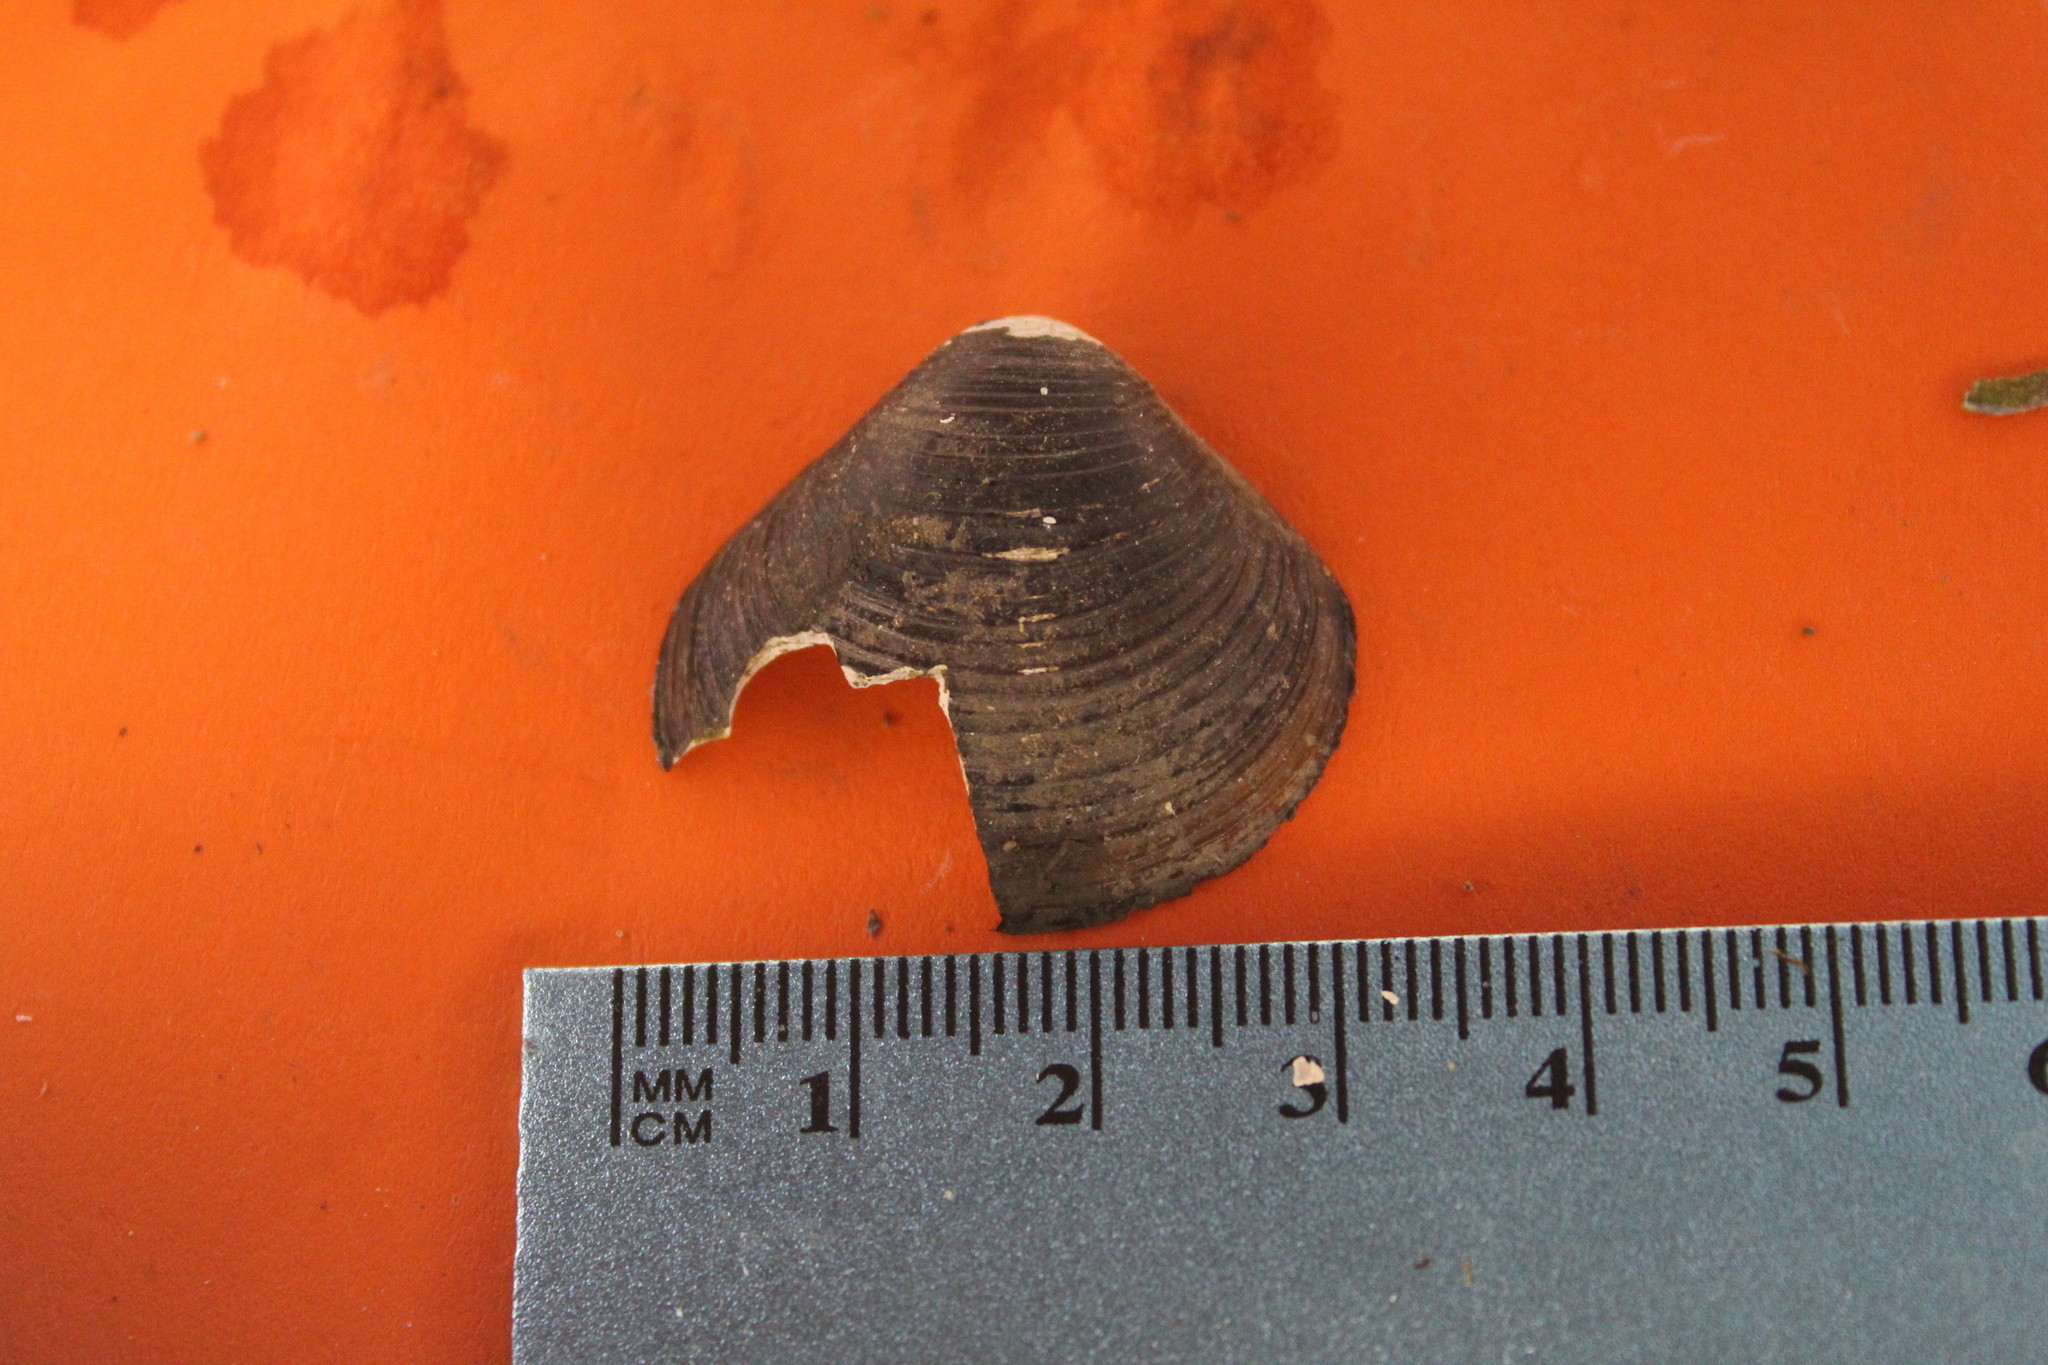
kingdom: Animalia
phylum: Mollusca
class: Bivalvia
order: Venerida
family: Cyrenidae
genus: Corbicula
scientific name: Corbicula fluminea
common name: Asian clam
